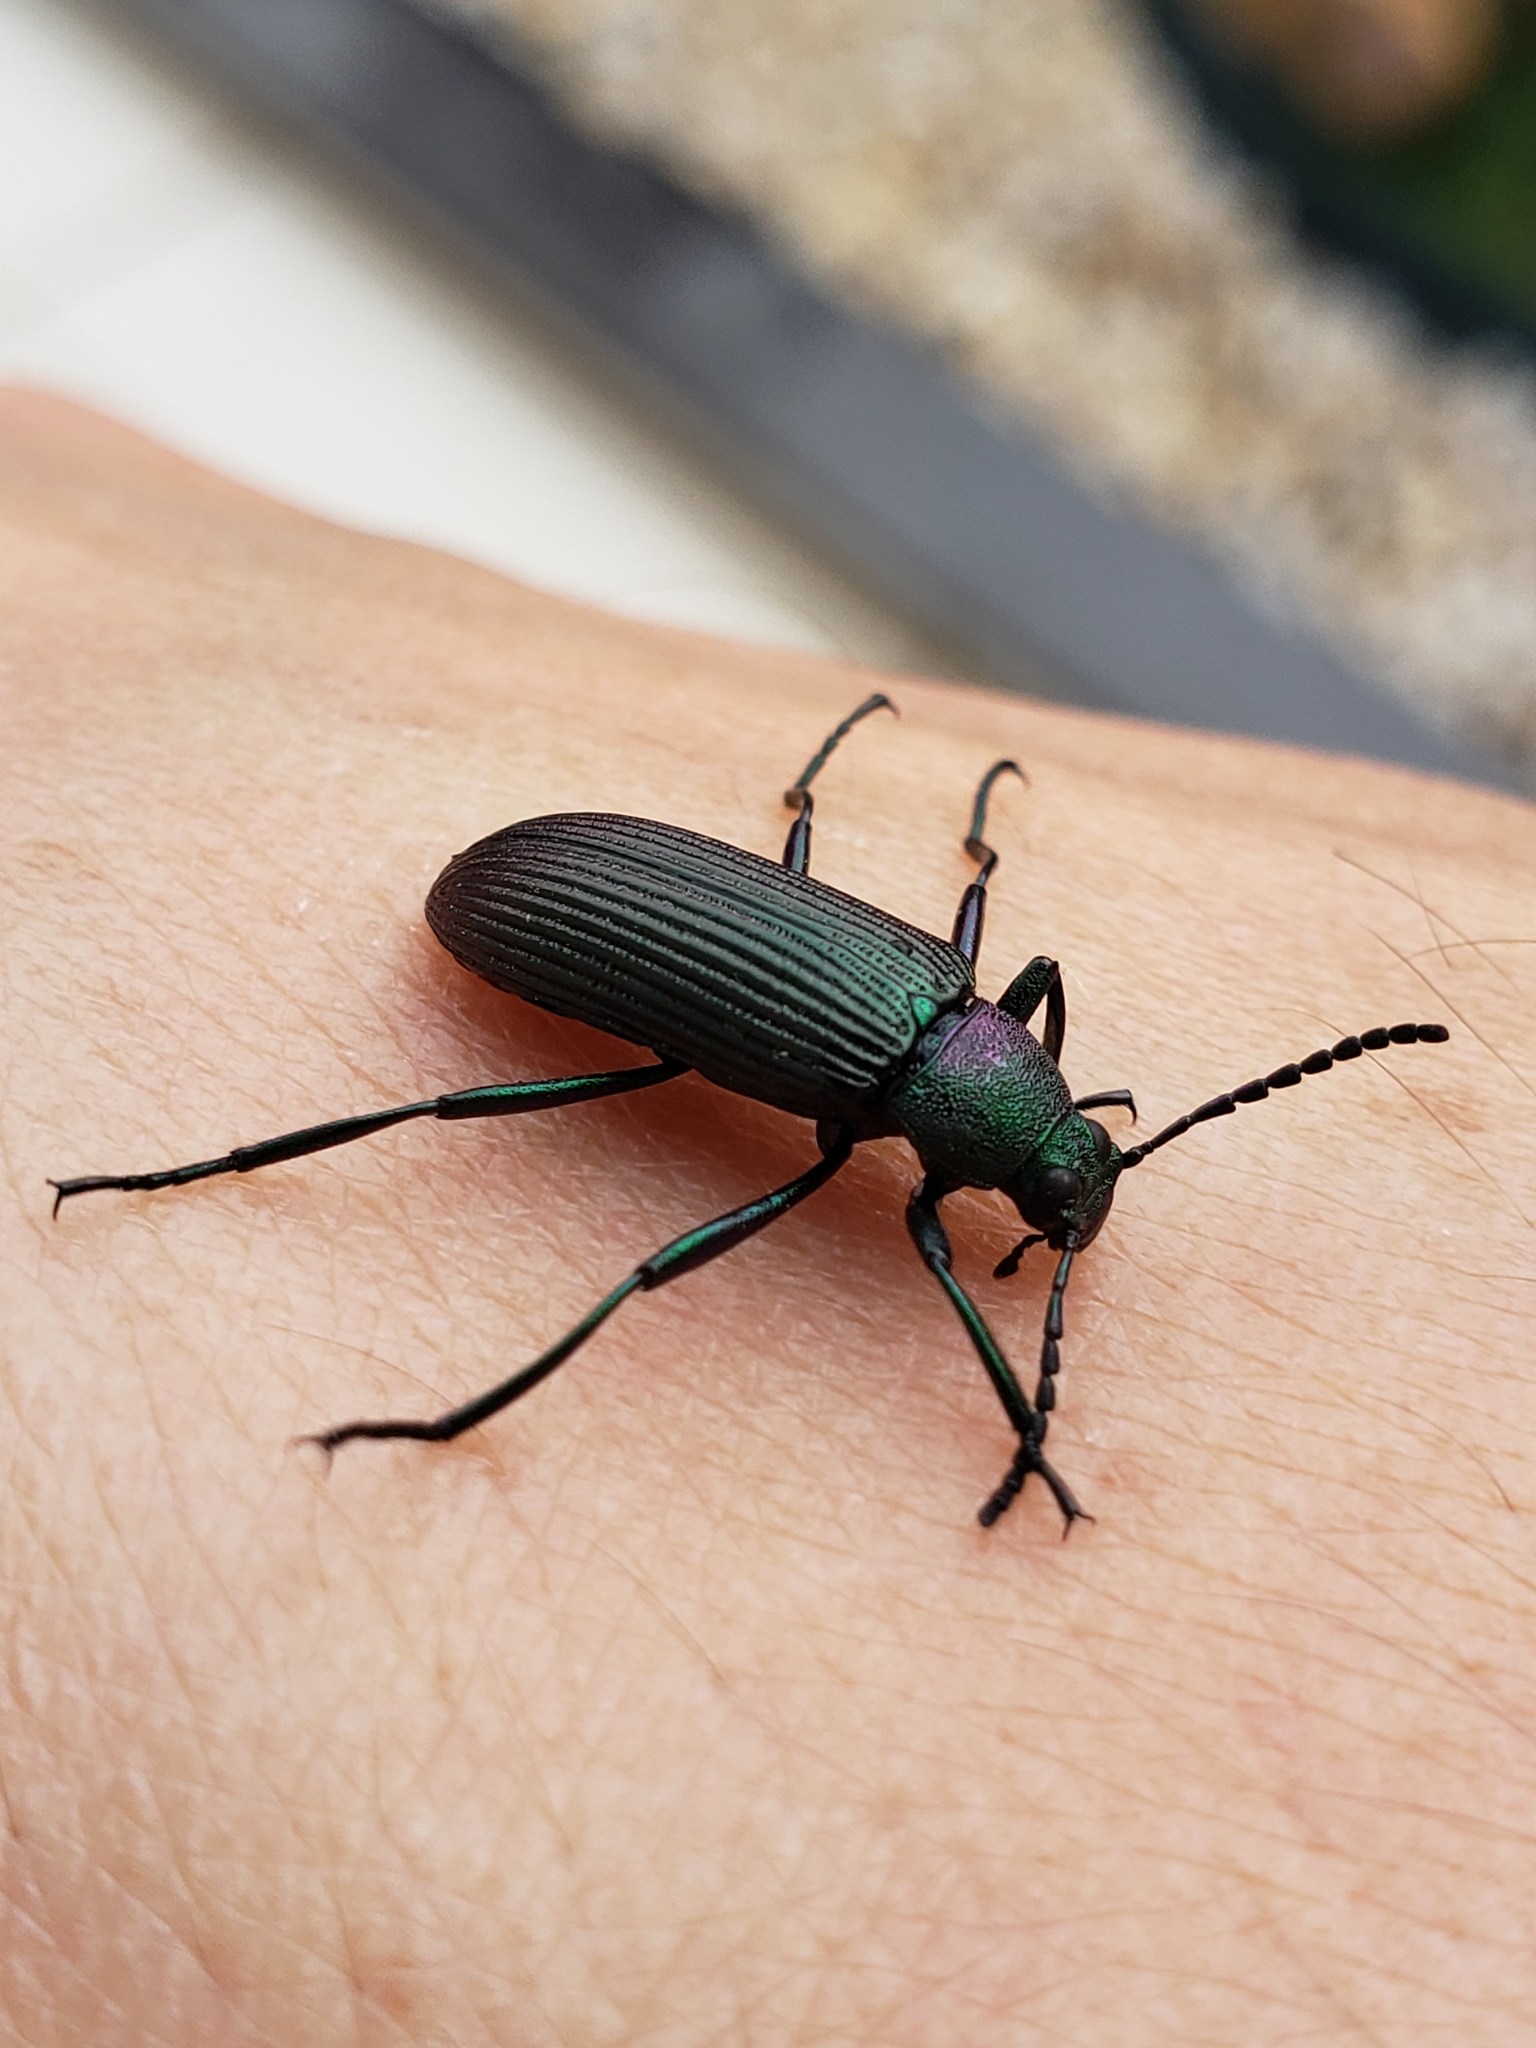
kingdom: Animalia
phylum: Arthropoda
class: Insecta
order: Coleoptera
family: Tenebrionidae
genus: Strongylium
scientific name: Strongylium
